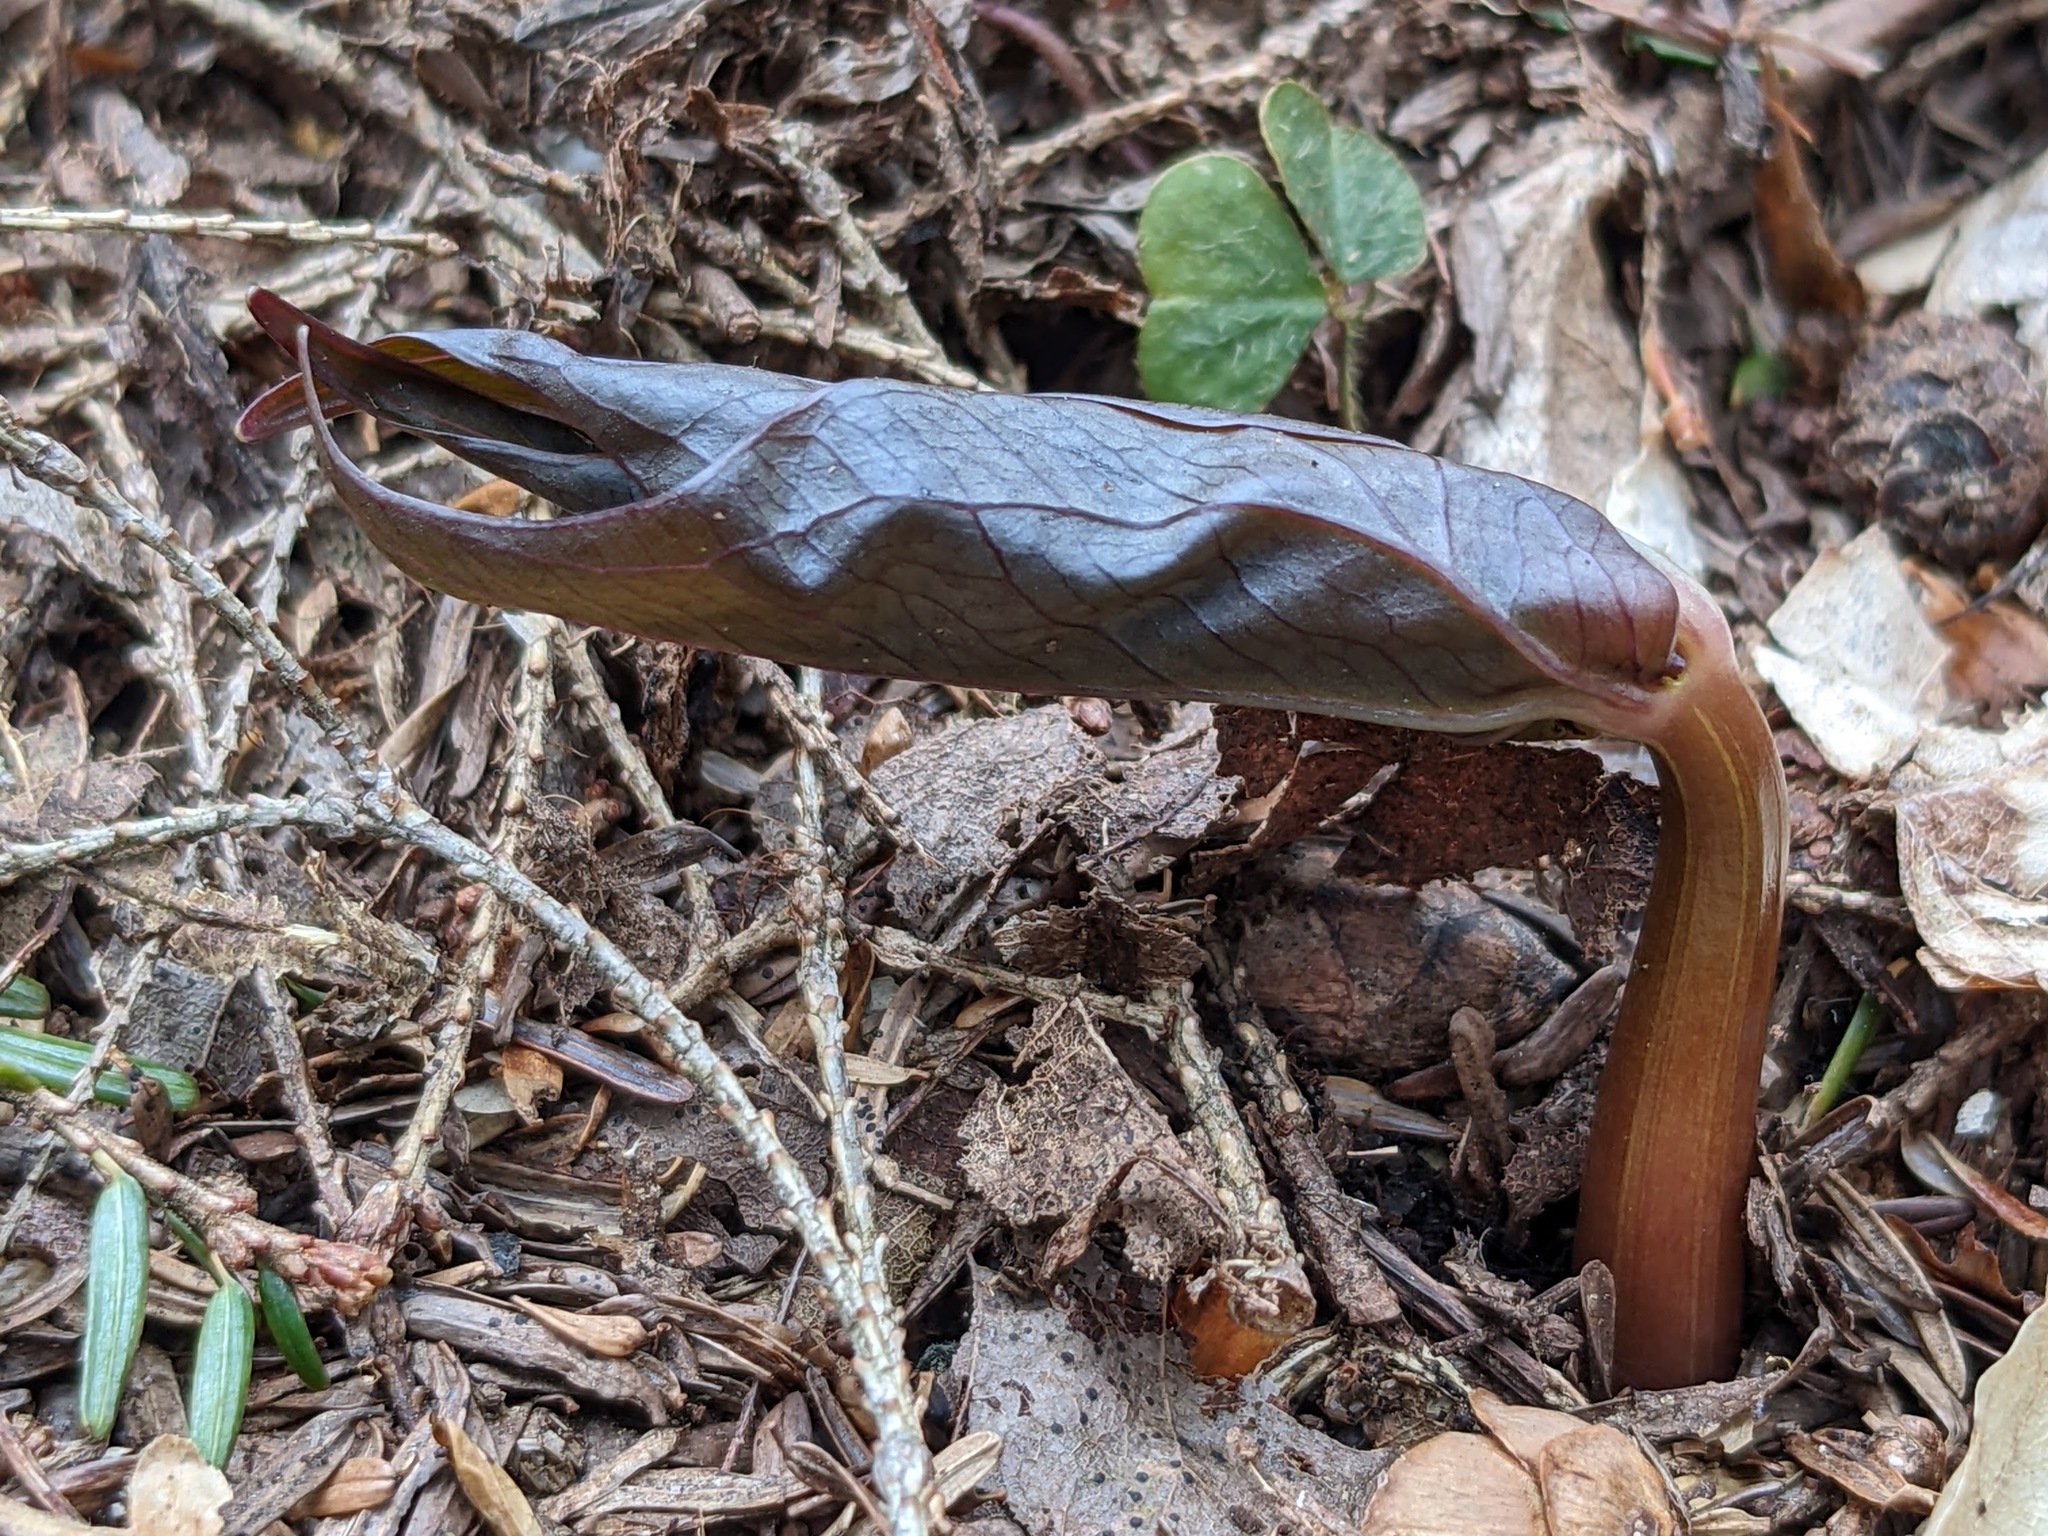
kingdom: Plantae
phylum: Tracheophyta
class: Liliopsida
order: Liliales
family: Melanthiaceae
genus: Trillium
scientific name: Trillium undulatum
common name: Paint trillium
